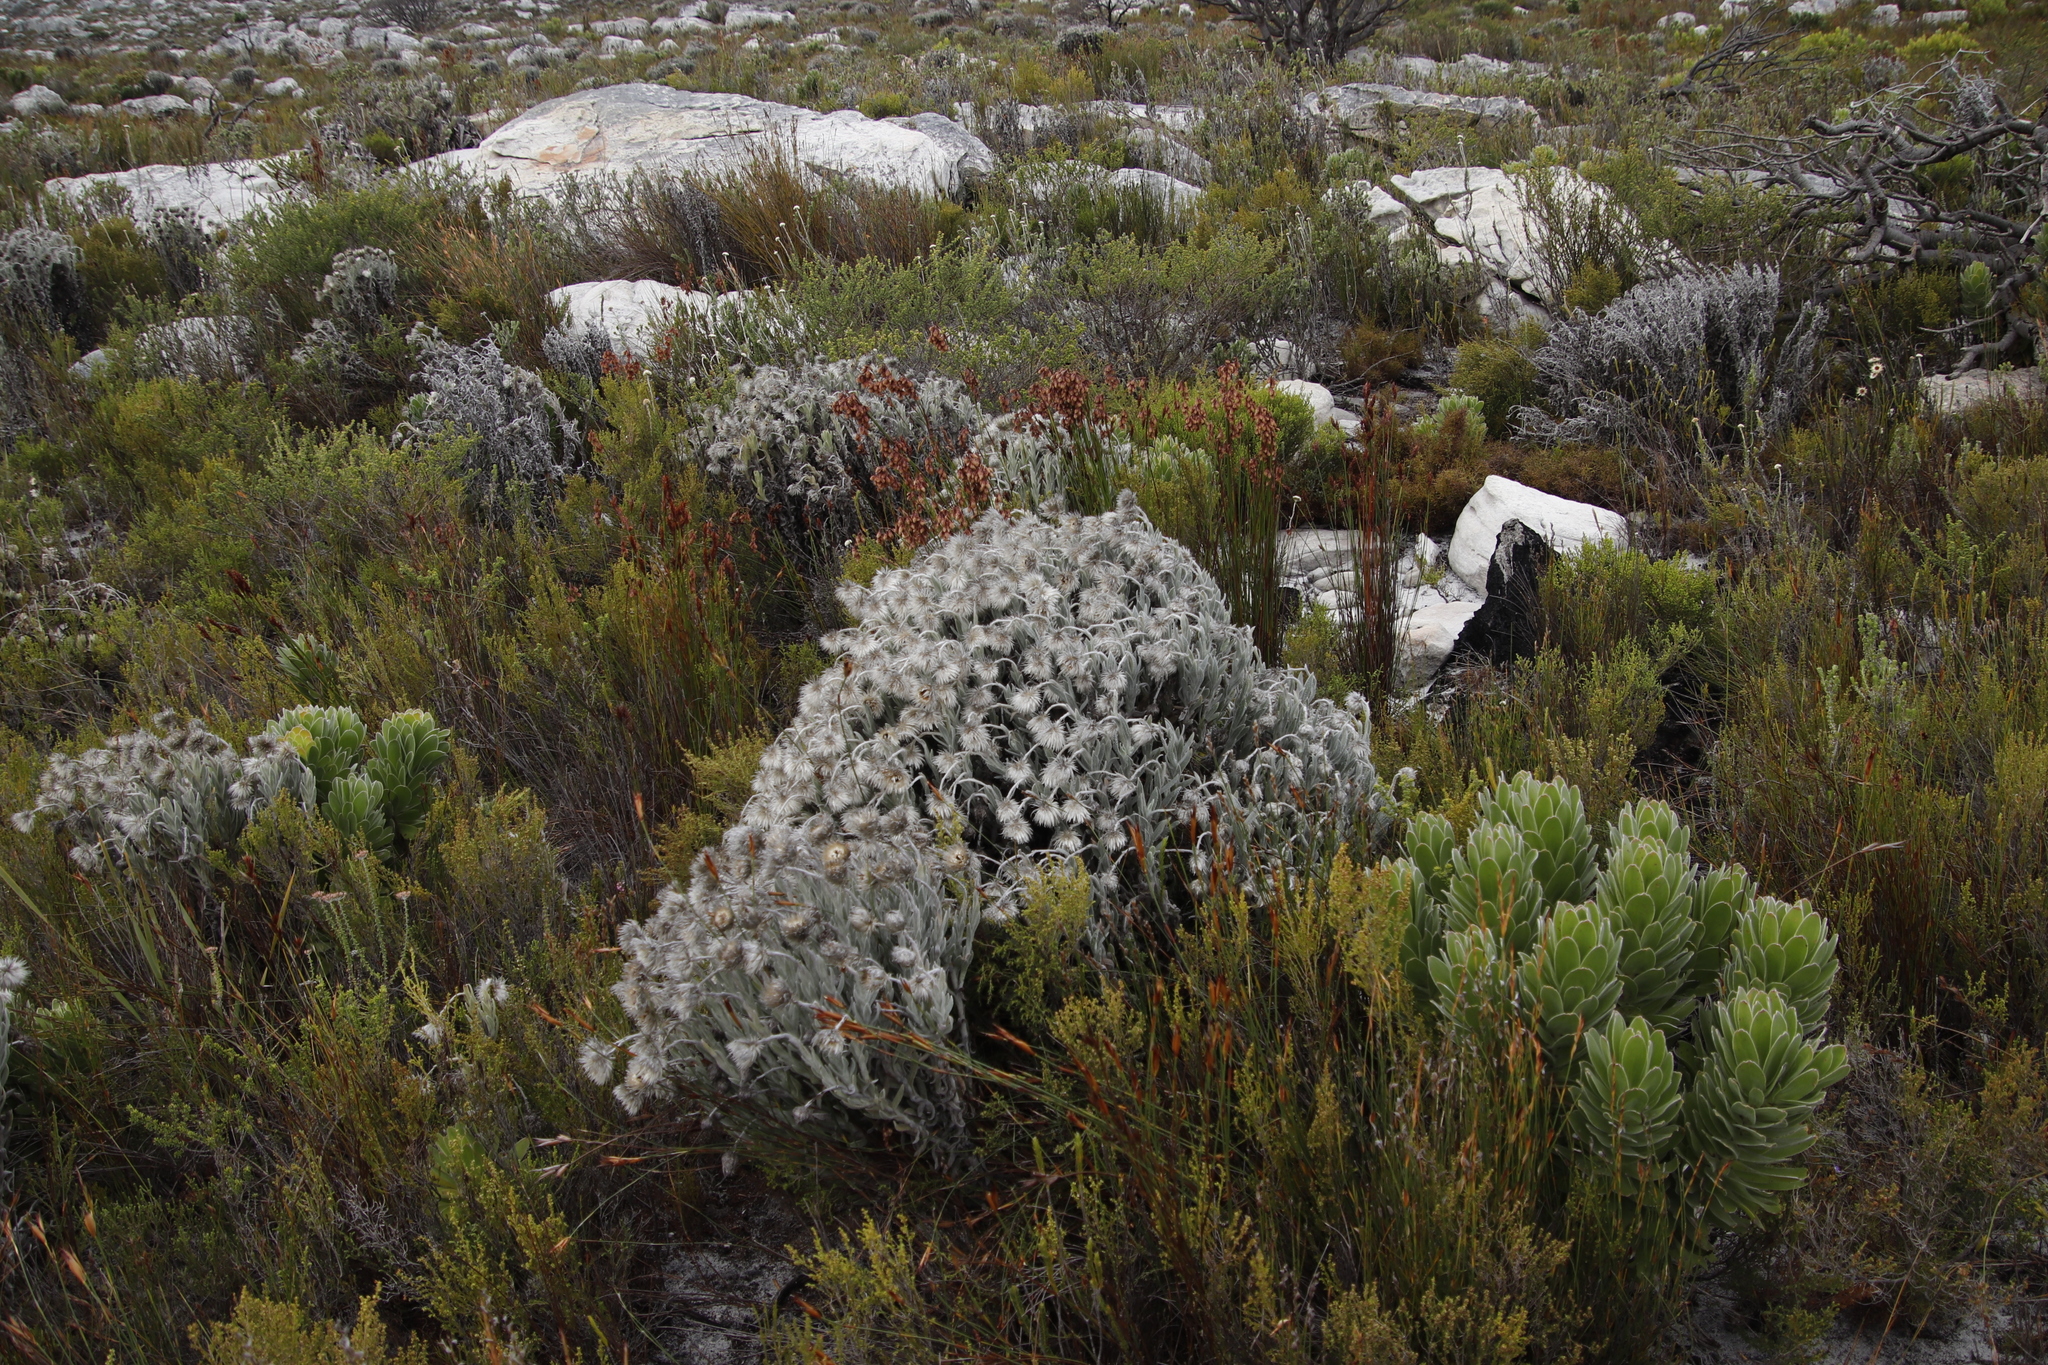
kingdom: Plantae
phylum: Tracheophyta
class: Magnoliopsida
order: Asterales
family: Asteraceae
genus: Syncarpha
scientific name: Syncarpha vestita
